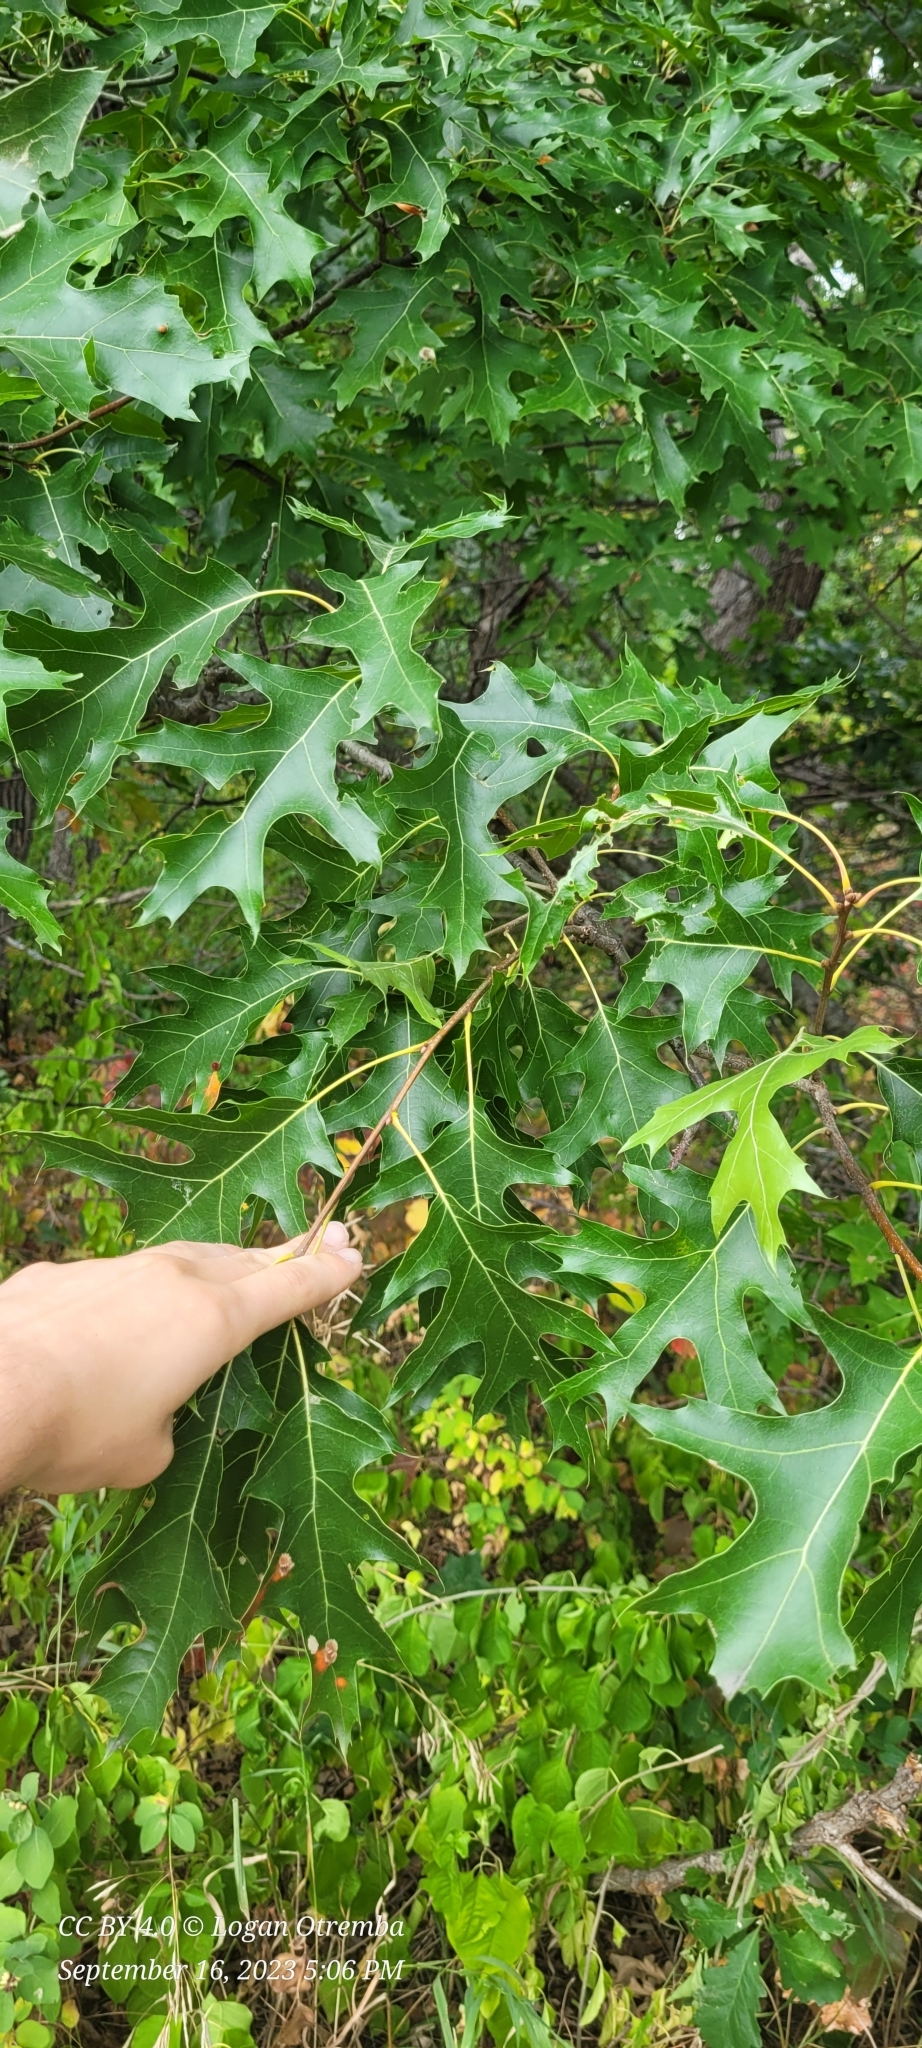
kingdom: Plantae
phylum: Tracheophyta
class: Magnoliopsida
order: Fagales
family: Fagaceae
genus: Quercus
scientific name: Quercus ellipsoidalis
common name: Hill's oak
